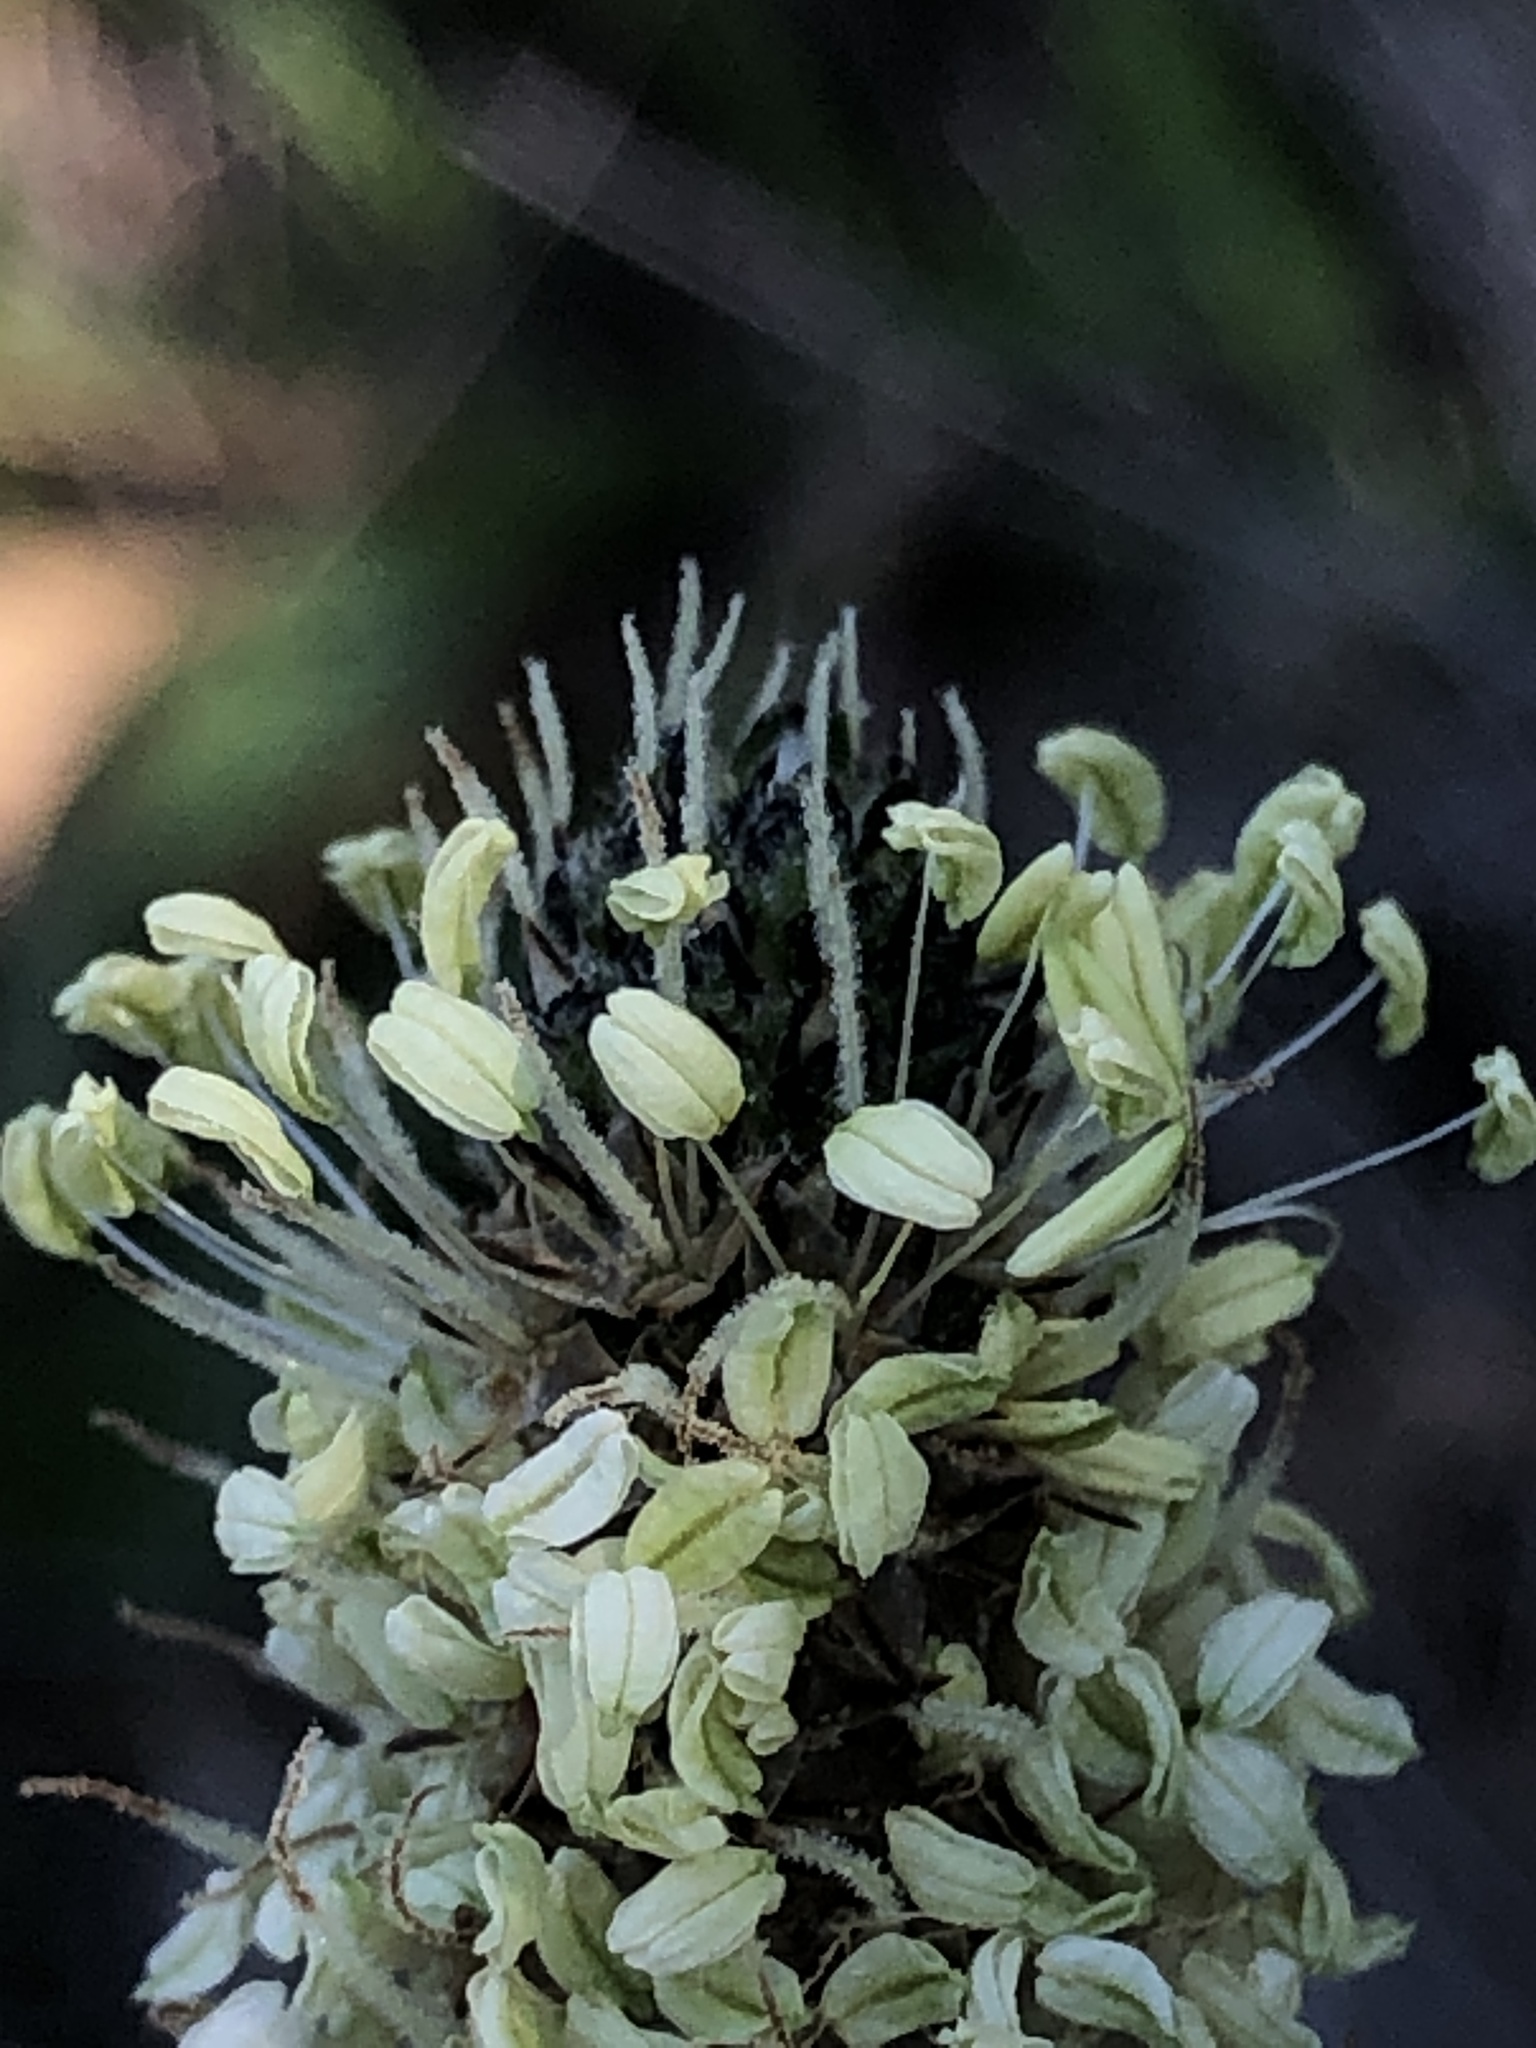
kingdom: Plantae
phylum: Tracheophyta
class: Magnoliopsida
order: Lamiales
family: Plantaginaceae
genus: Plantago
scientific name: Plantago lanceolata
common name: Ribwort plantain
